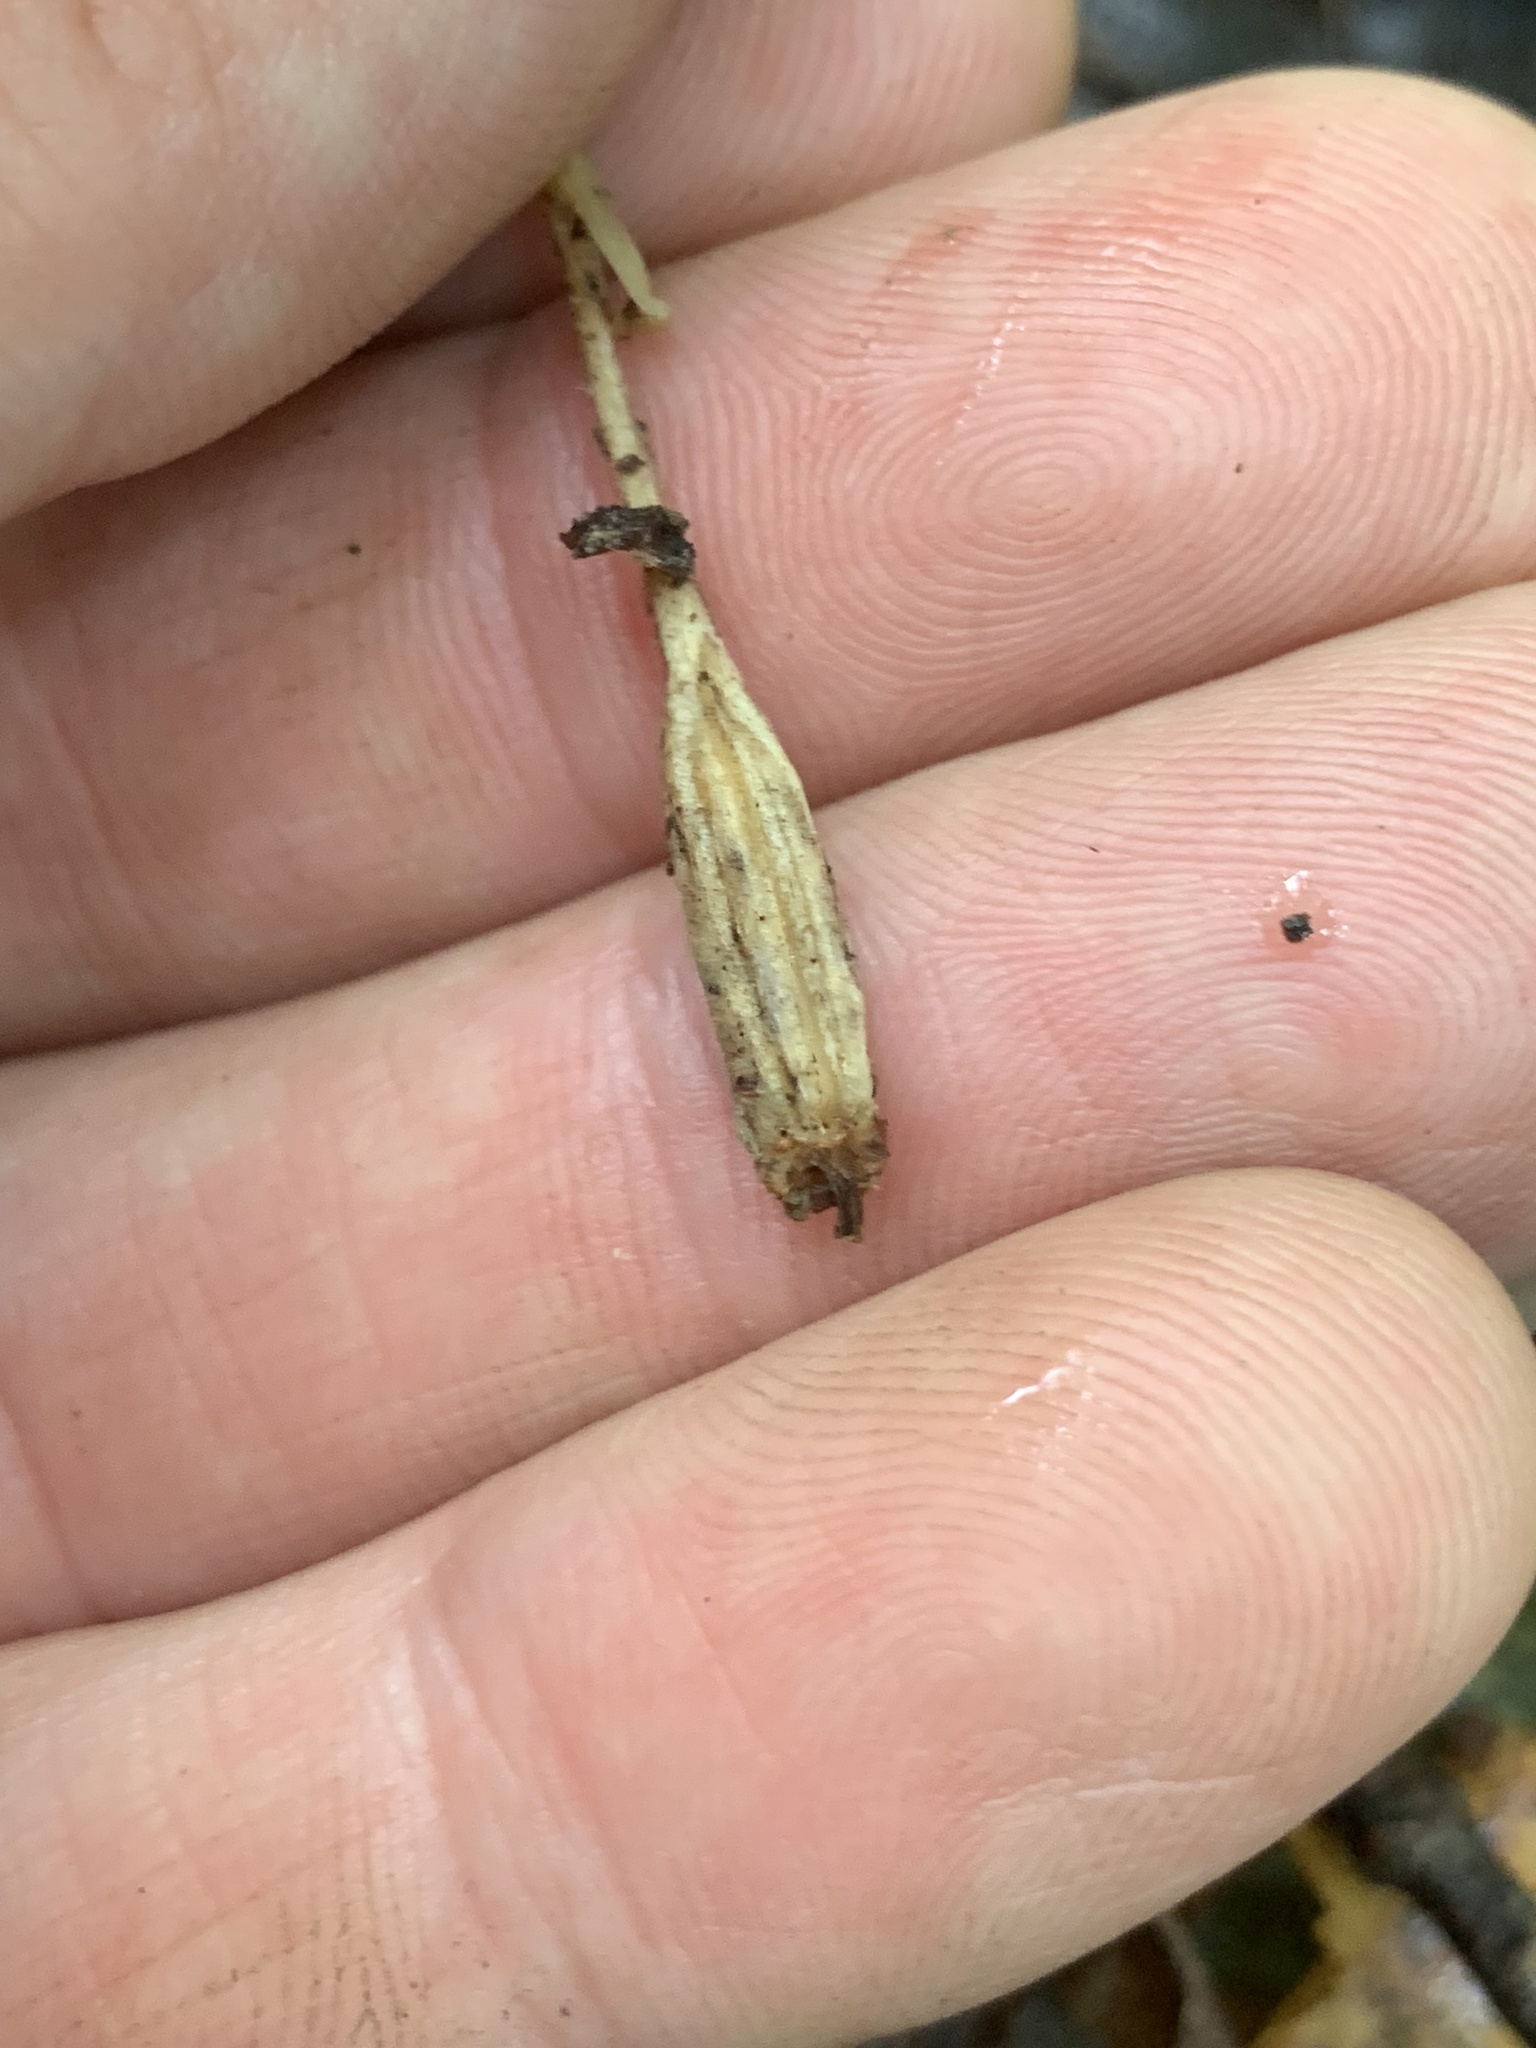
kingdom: Plantae
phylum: Tracheophyta
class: Liliopsida
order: Asparagales
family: Orchidaceae
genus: Liparis
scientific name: Liparis liliifolia
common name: Brown wide-lip orchid
